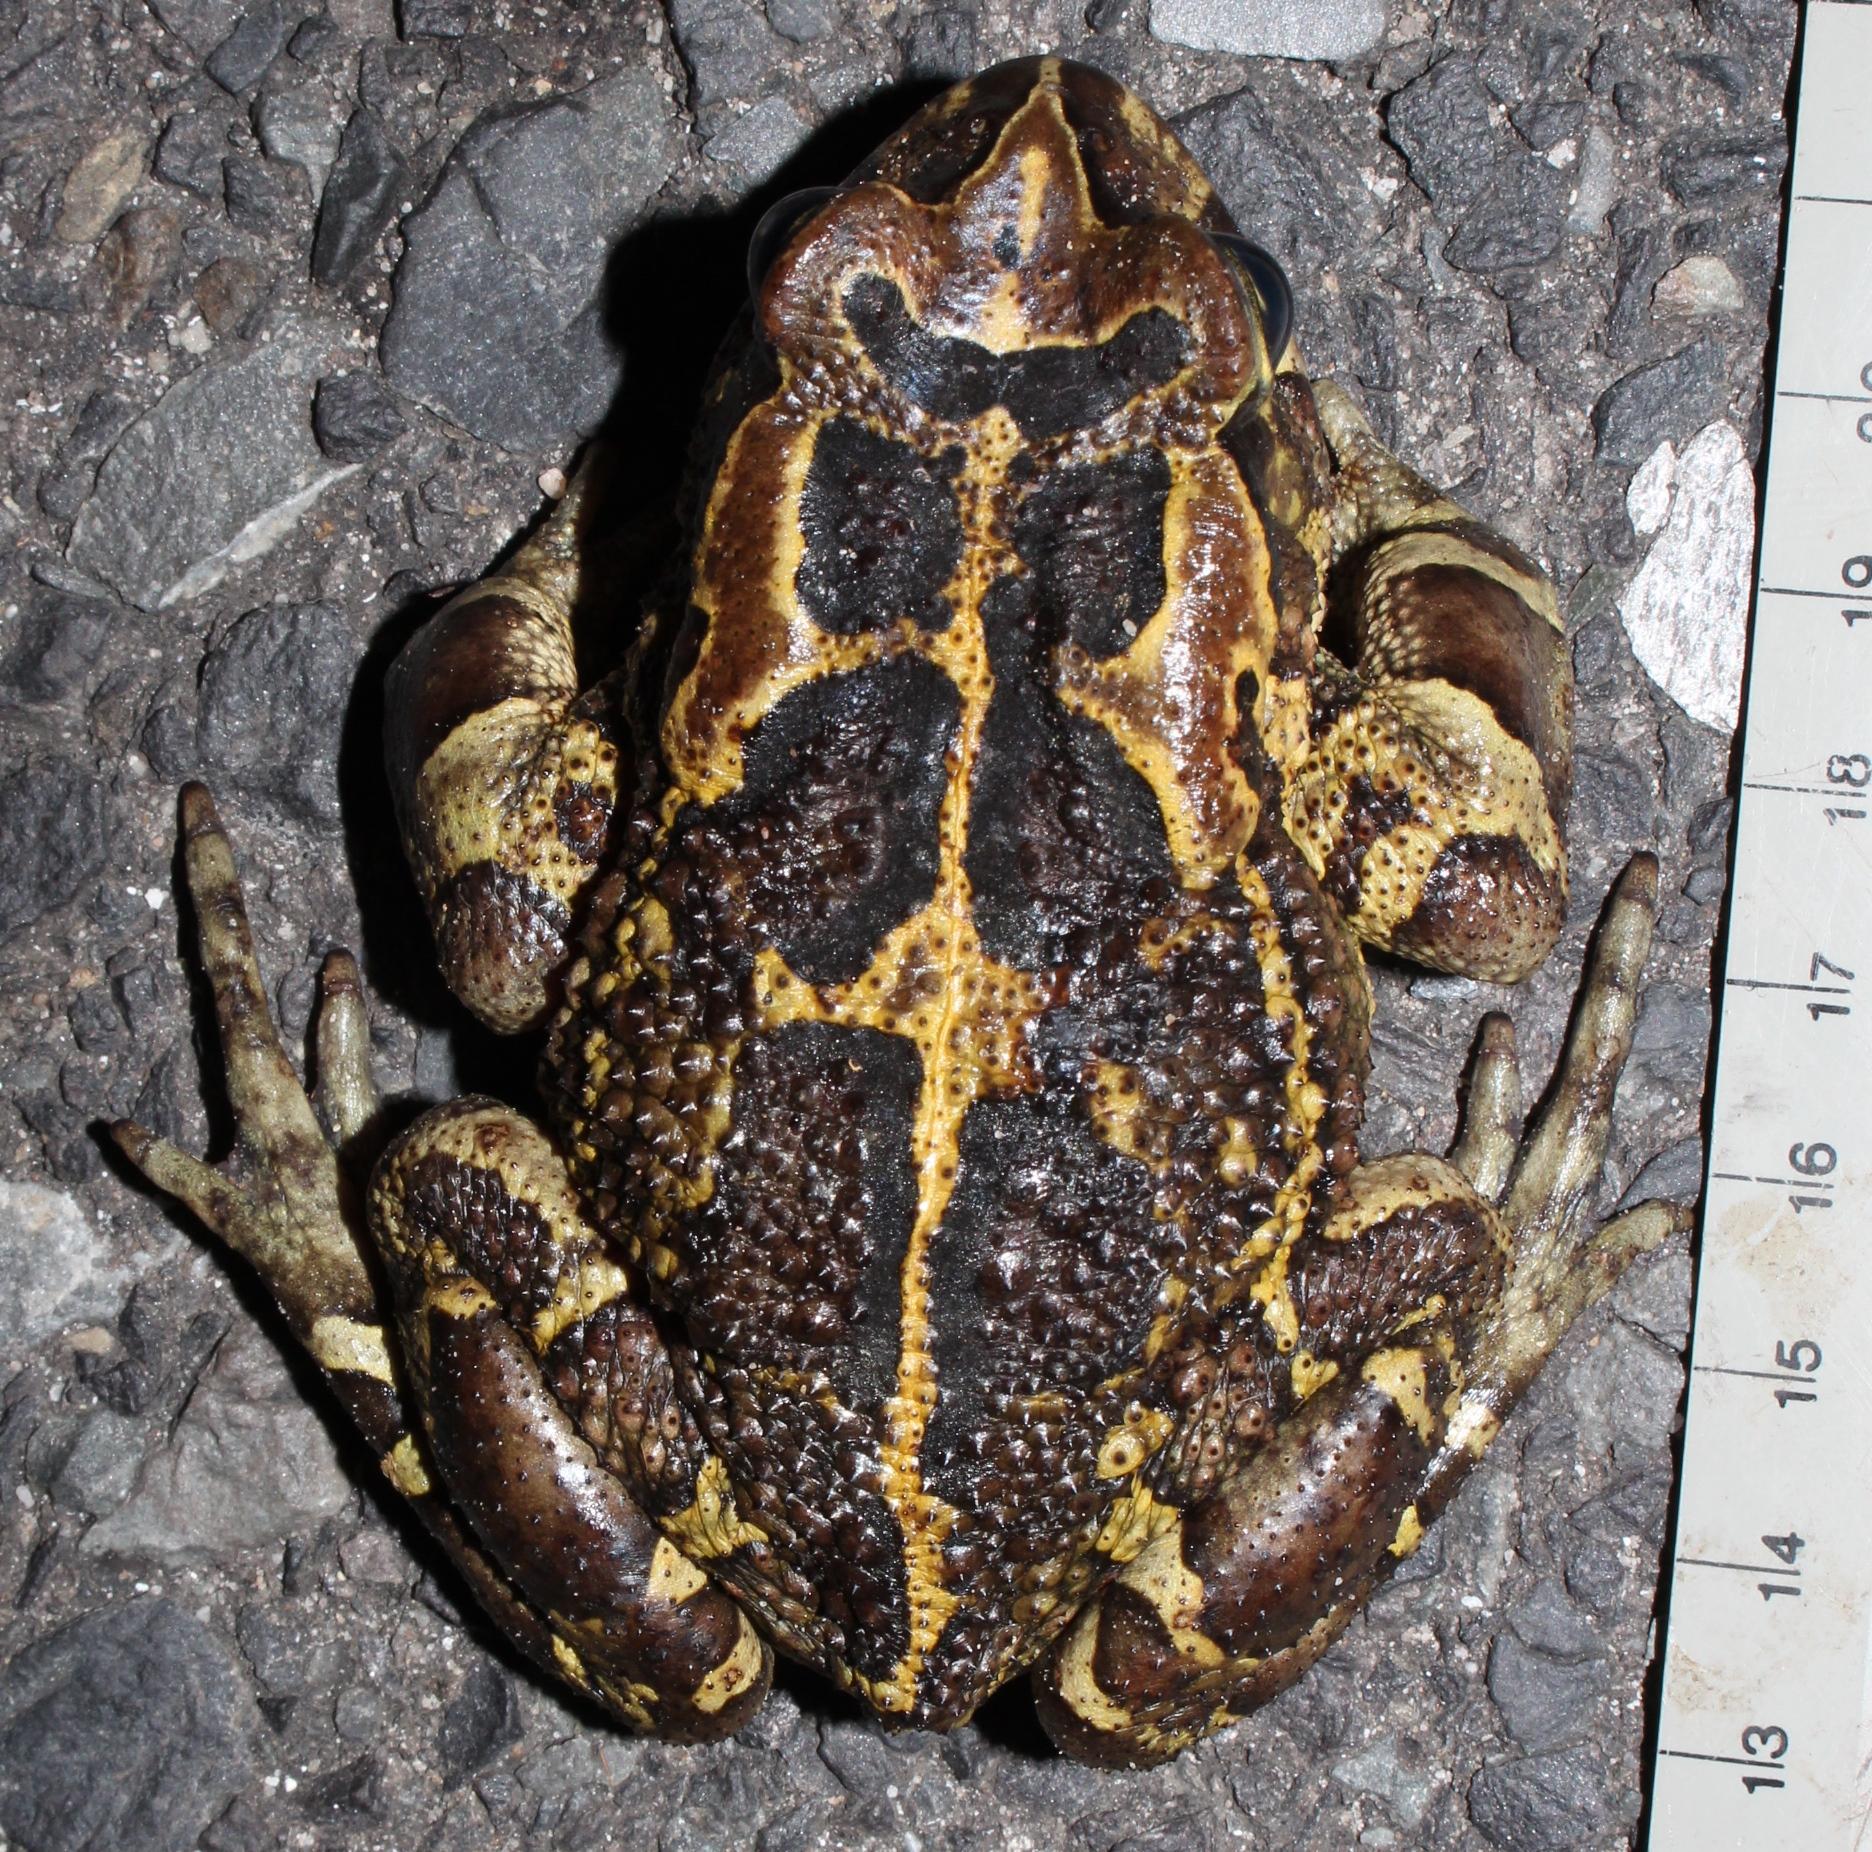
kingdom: Animalia
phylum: Chordata
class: Amphibia
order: Anura
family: Bufonidae
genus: Sclerophrys
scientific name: Sclerophrys pantherina
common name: Panther toad
